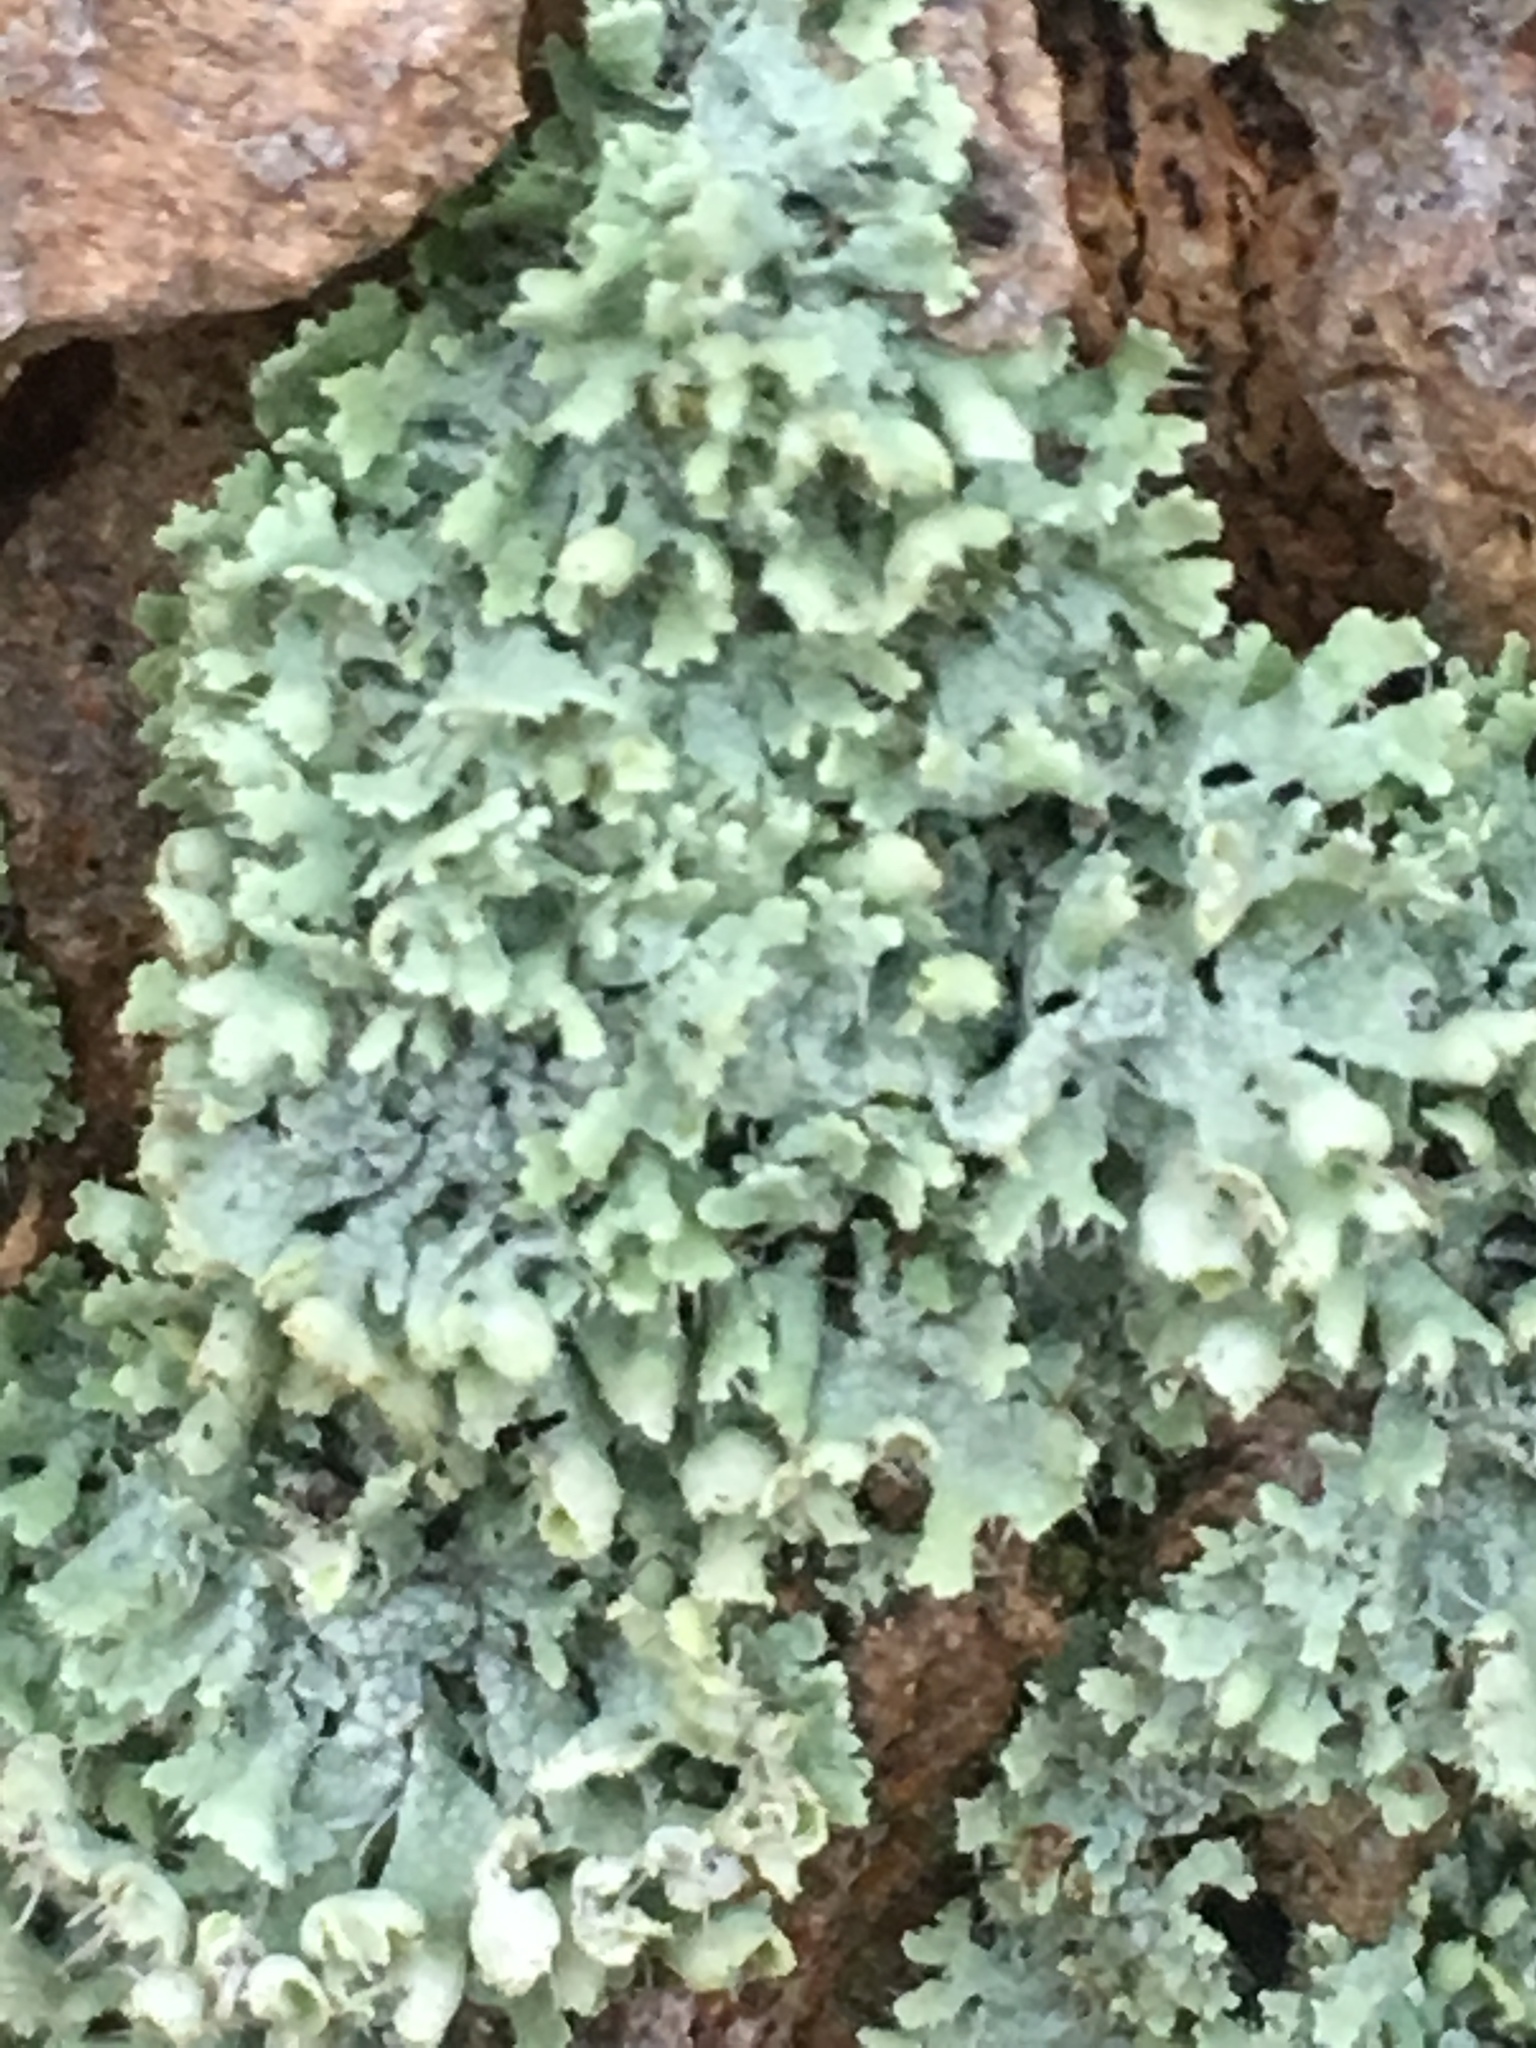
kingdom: Fungi
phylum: Ascomycota
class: Lecanoromycetes
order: Caliciales
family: Physciaceae
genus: Physcia
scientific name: Physcia adscendens
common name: Hooded rosette lichen
